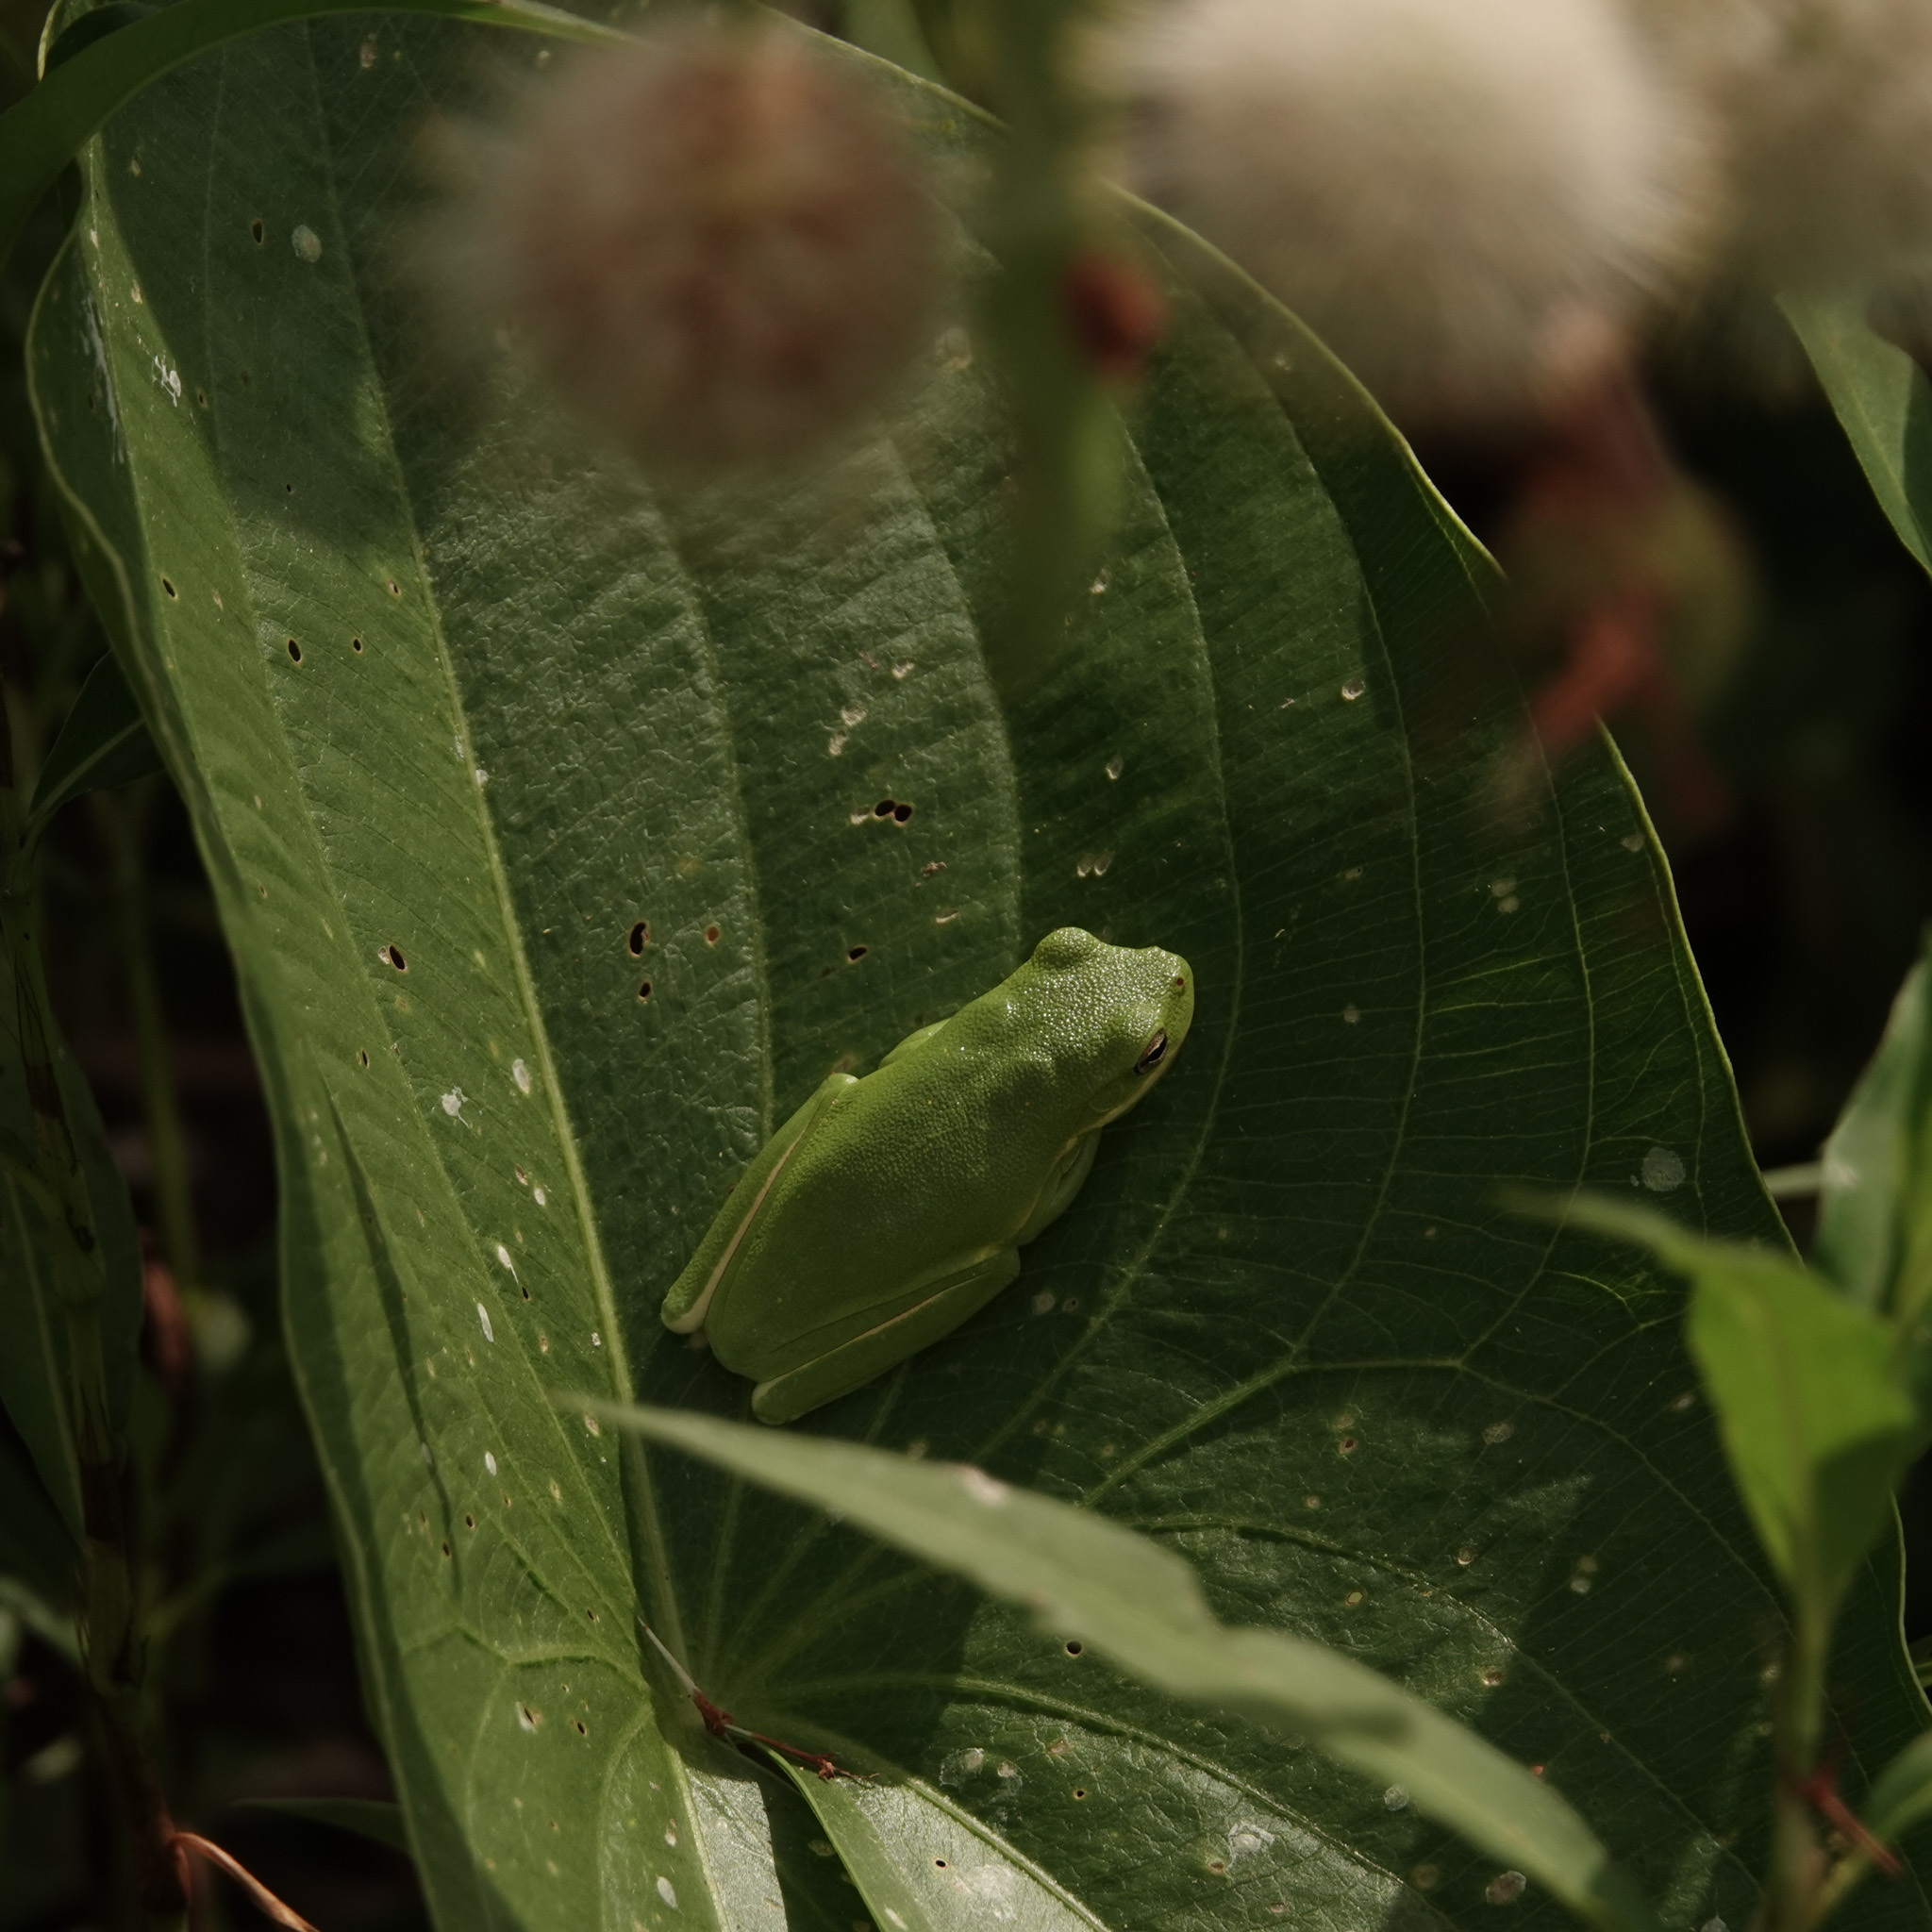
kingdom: Animalia
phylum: Chordata
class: Amphibia
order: Anura
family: Hylidae
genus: Dryophytes
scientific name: Dryophytes cinereus
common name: Green treefrog
